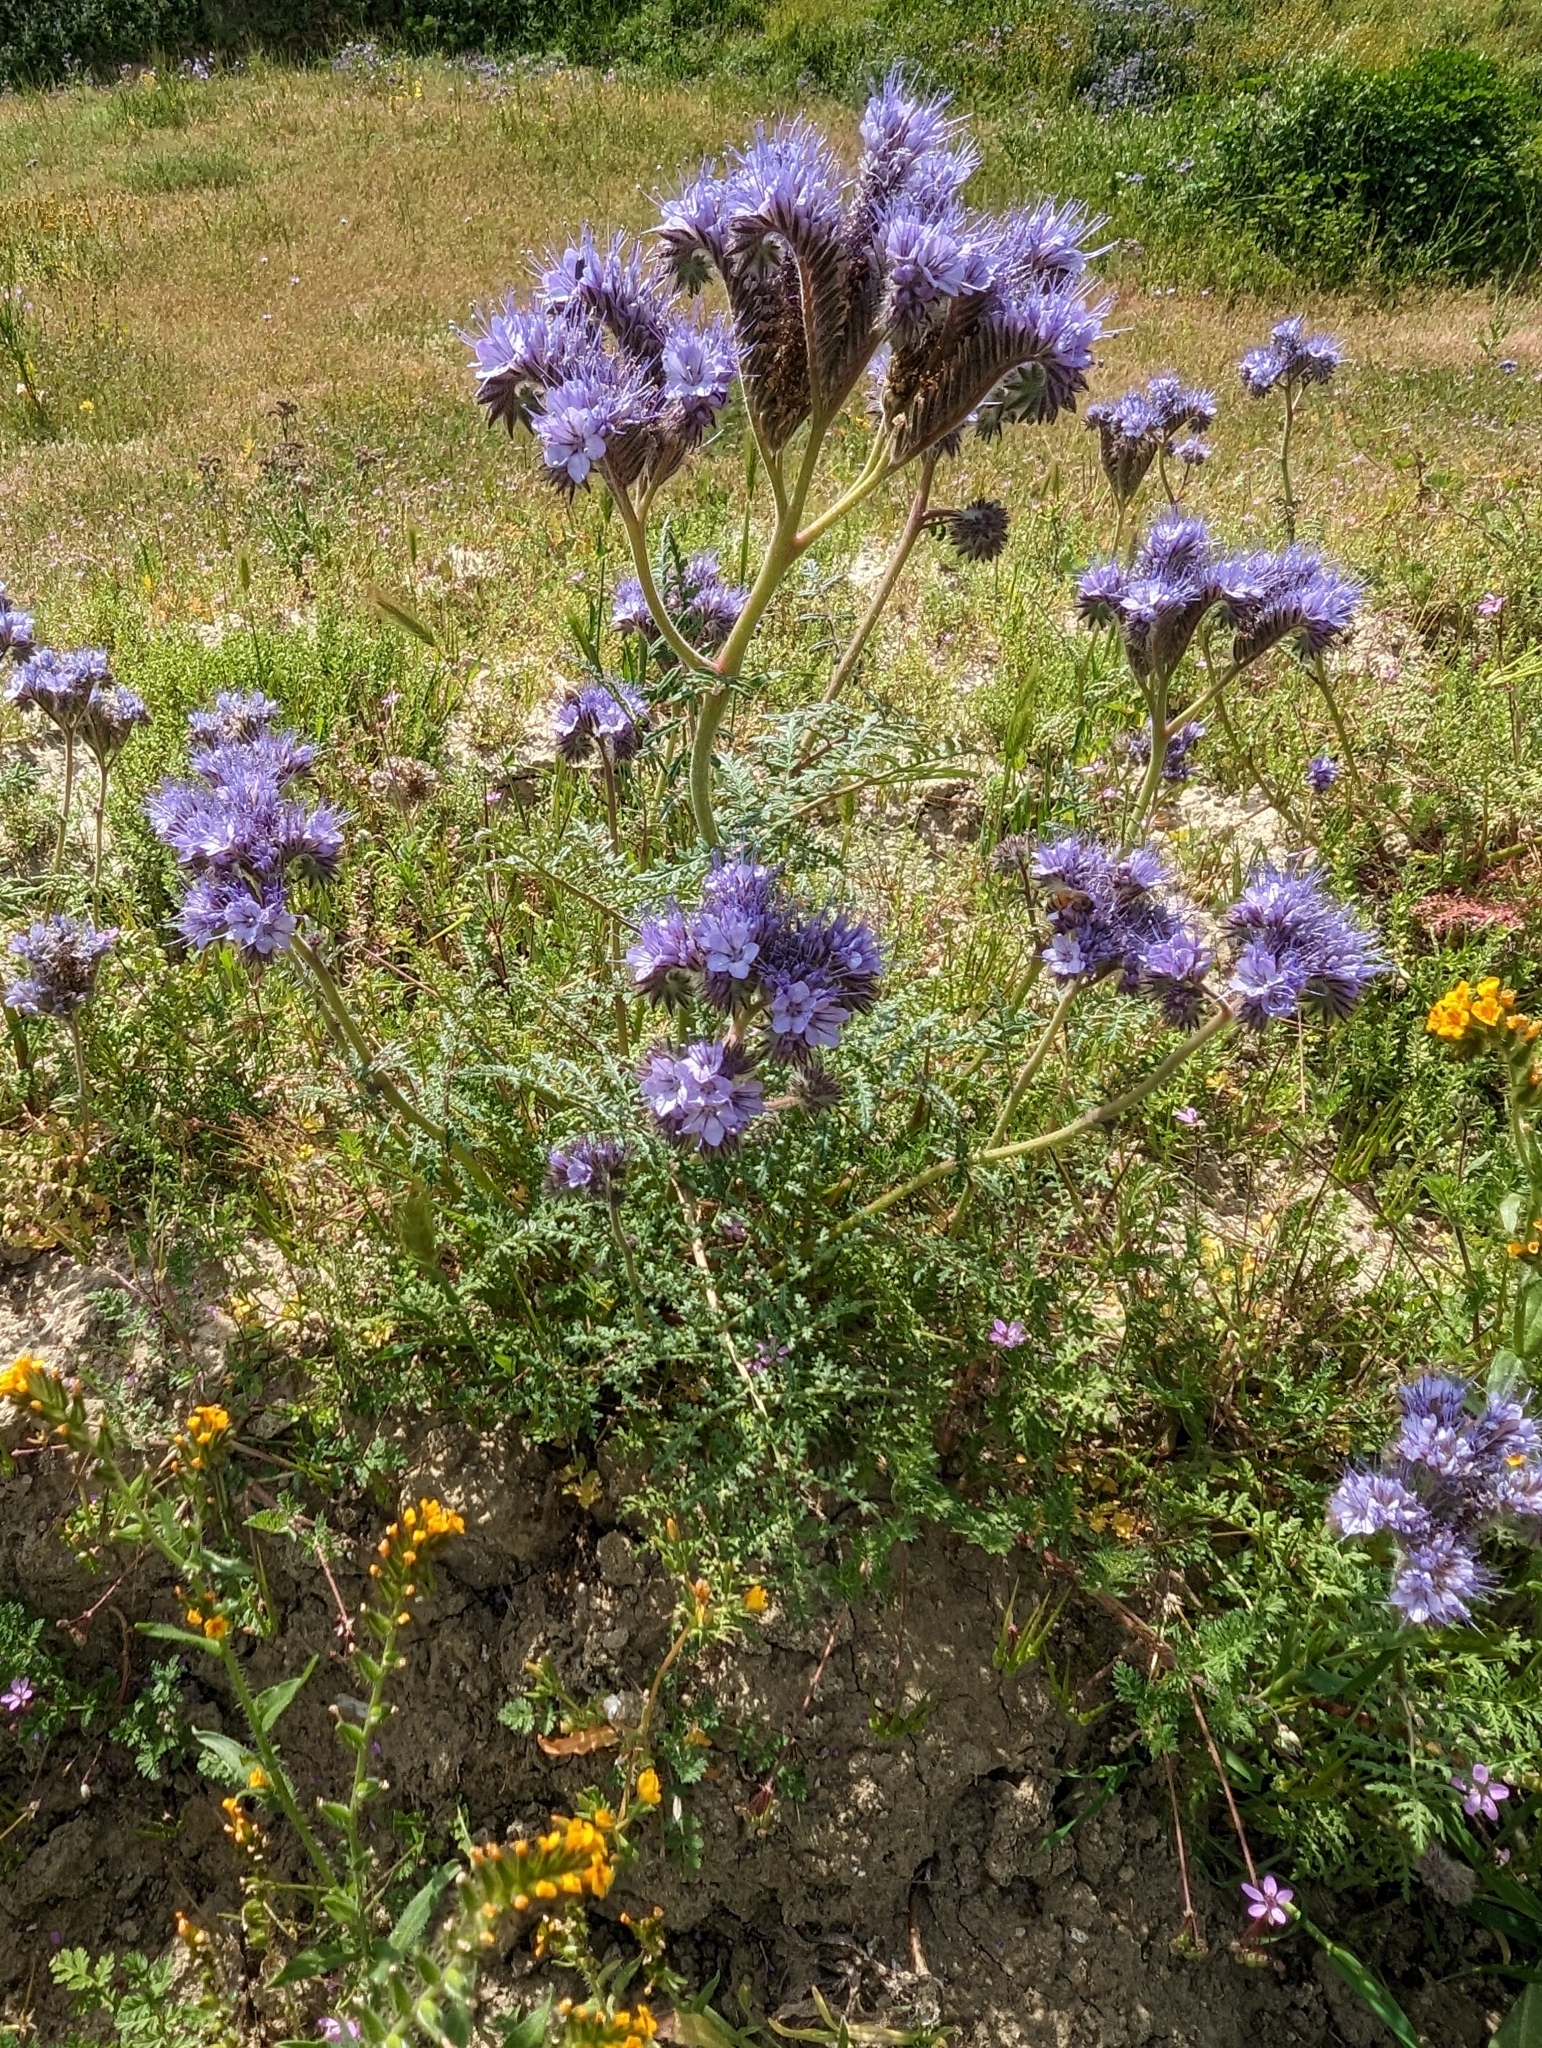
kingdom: Plantae
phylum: Tracheophyta
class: Magnoliopsida
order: Boraginales
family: Hydrophyllaceae
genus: Phacelia
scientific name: Phacelia tanacetifolia
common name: Phacelia
